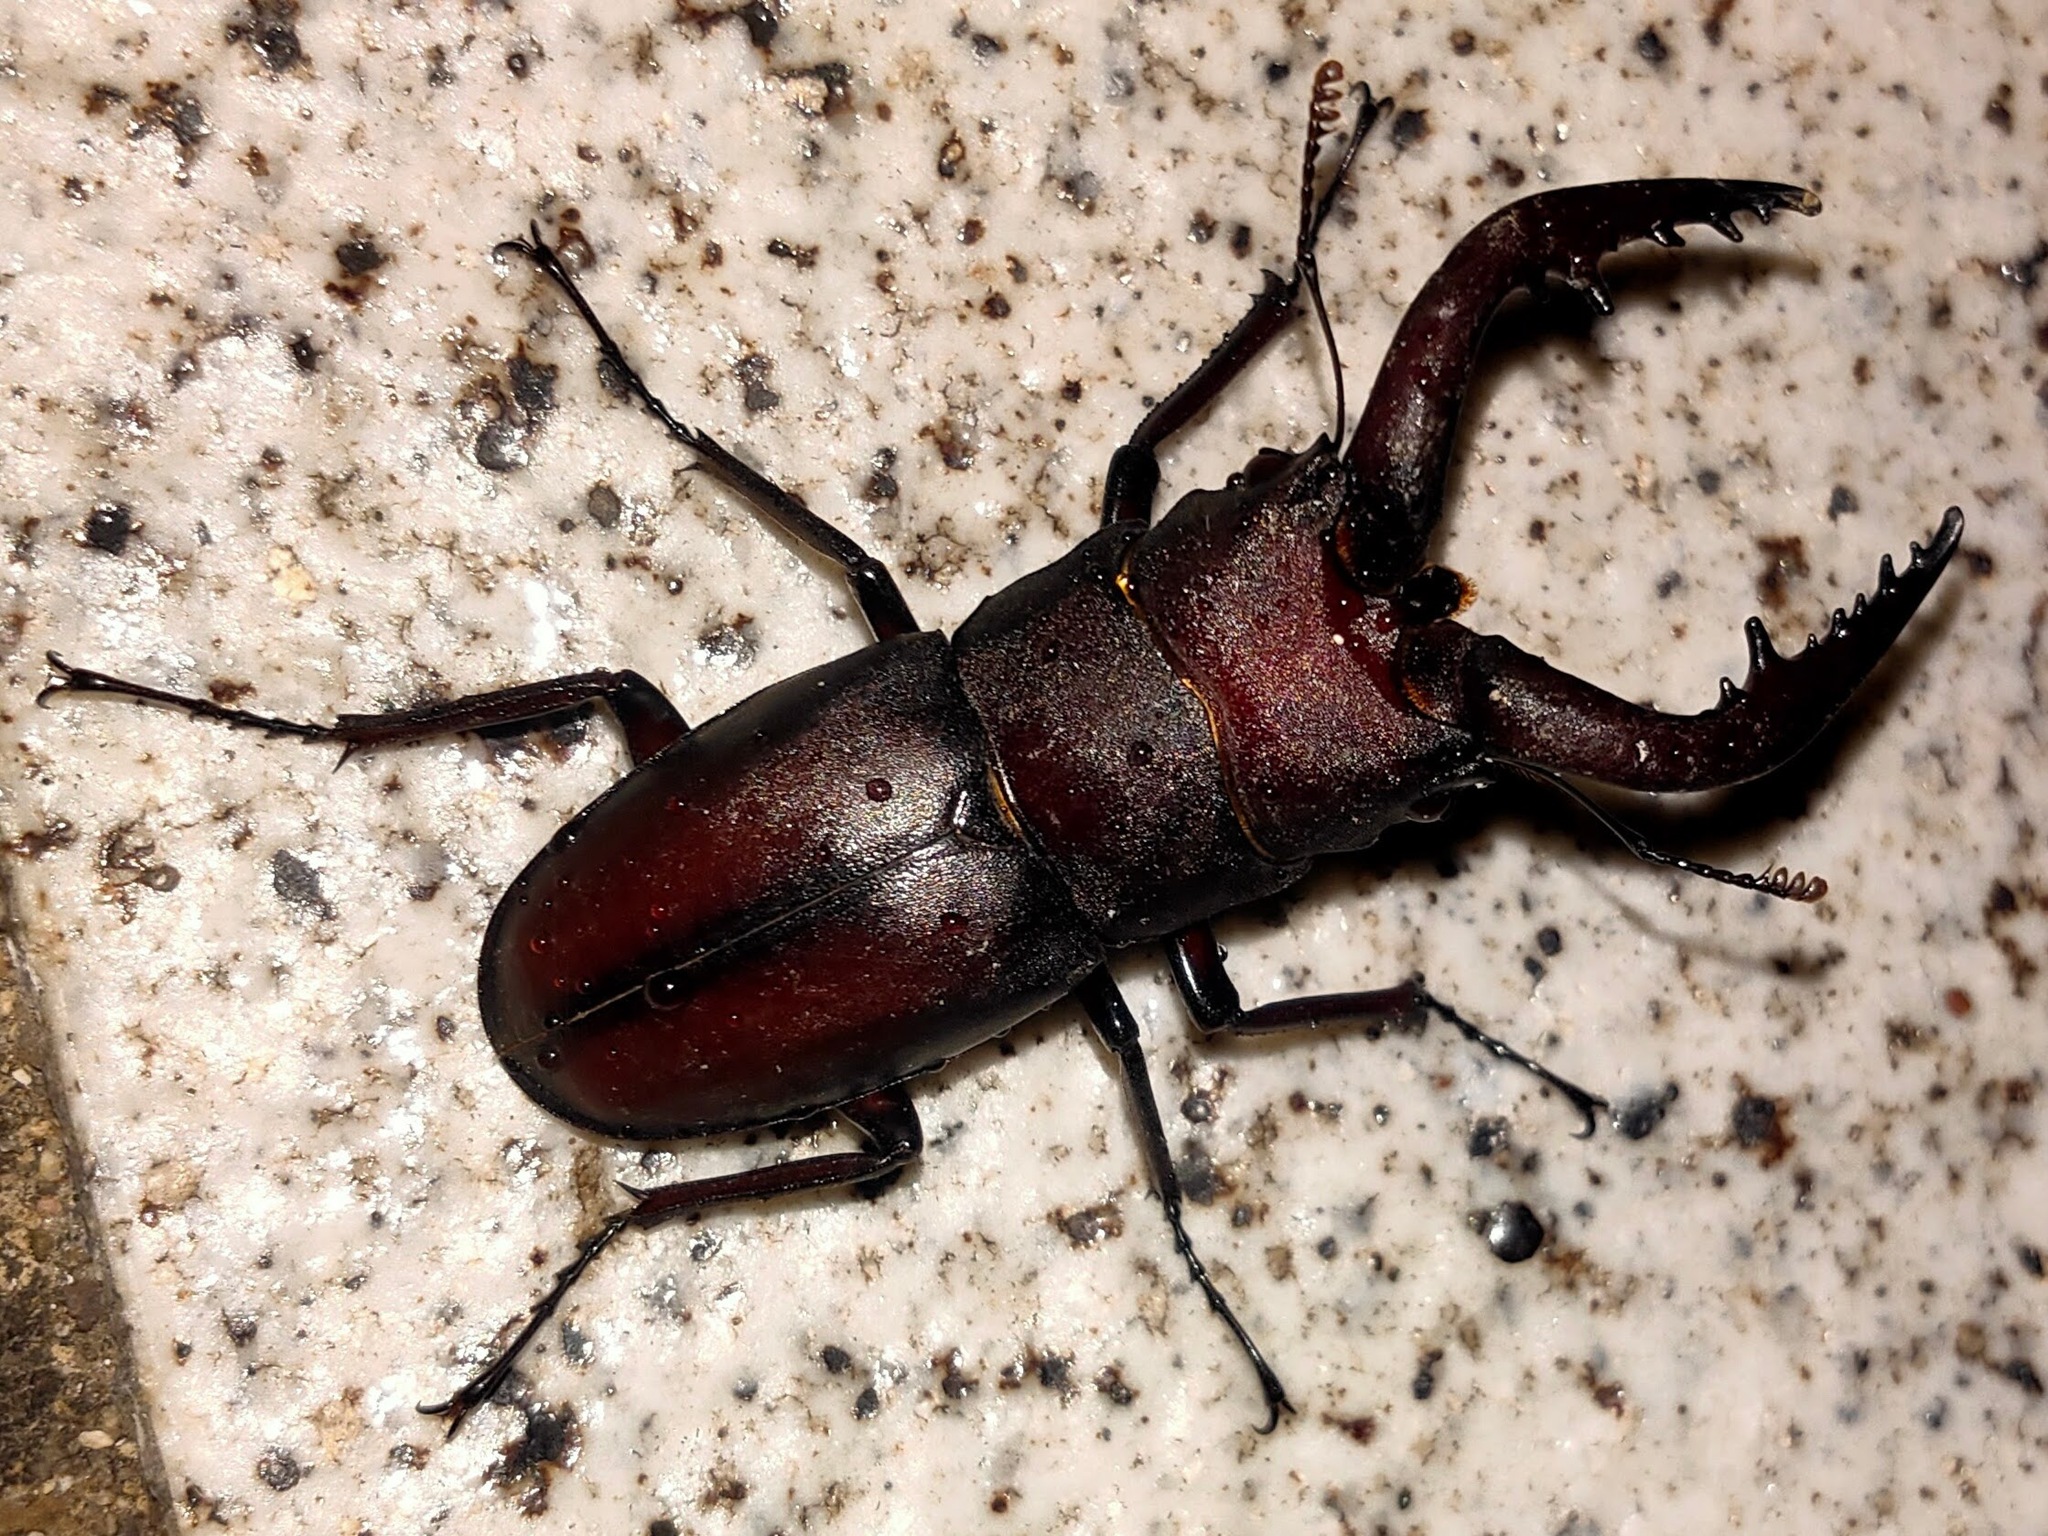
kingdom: Animalia
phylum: Arthropoda
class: Insecta
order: Coleoptera
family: Lucanidae
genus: Prosopocoilus
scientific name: Prosopocoilus inclinatus
